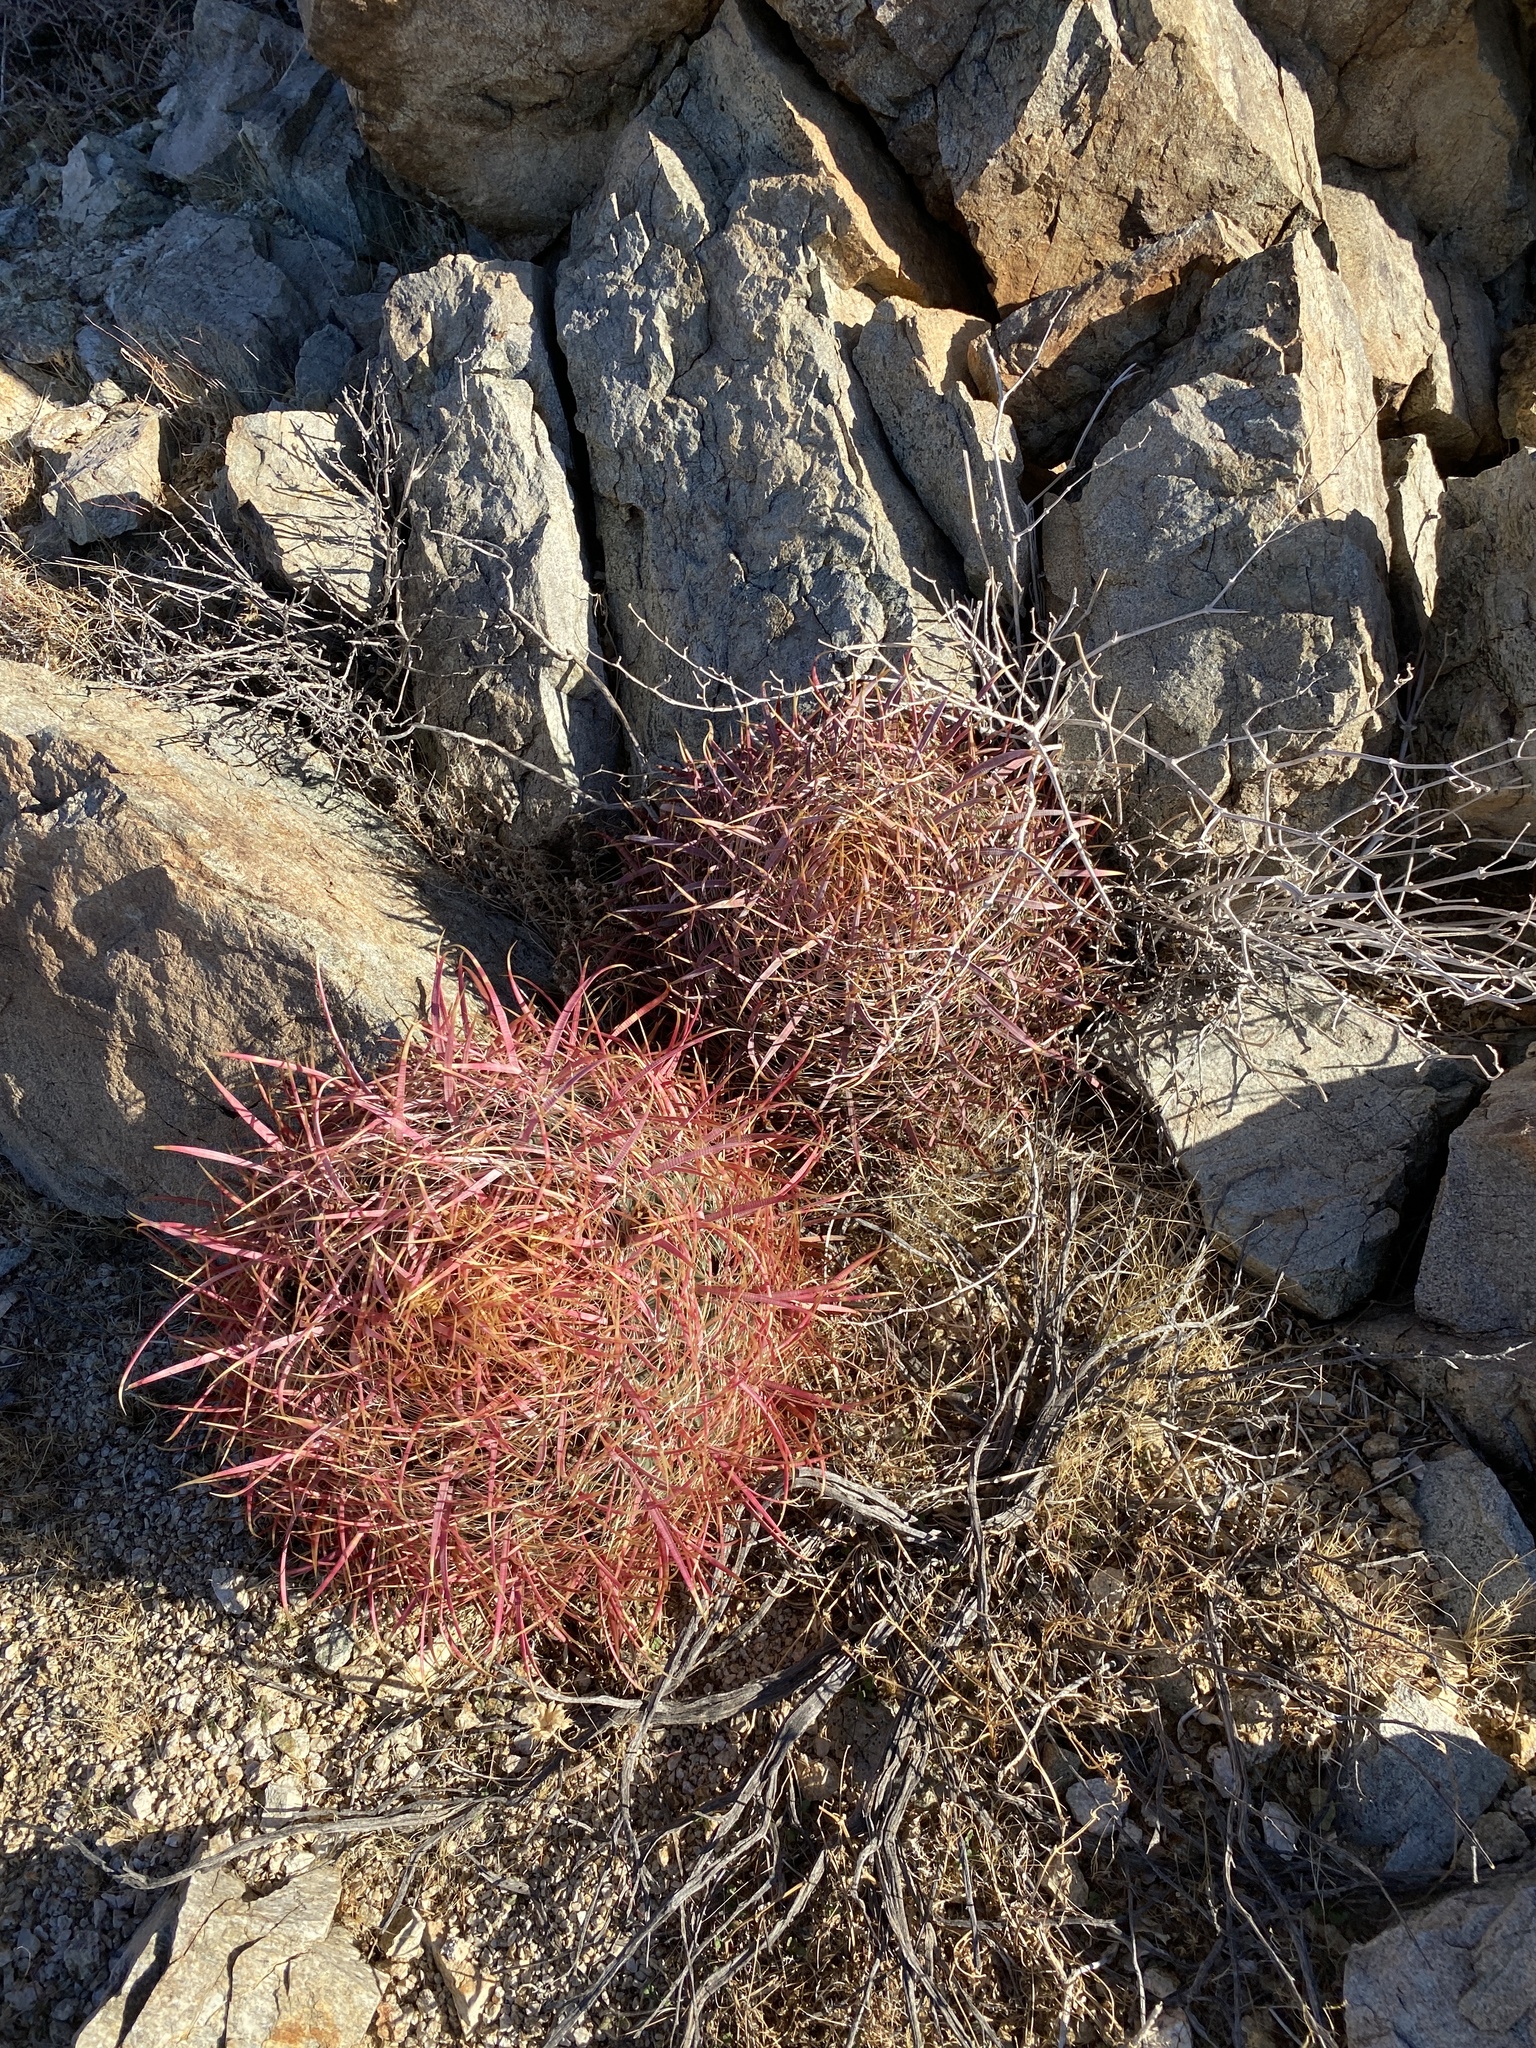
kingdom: Plantae
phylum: Tracheophyta
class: Magnoliopsida
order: Caryophyllales
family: Cactaceae
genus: Ferocactus
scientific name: Ferocactus cylindraceus
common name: California barrel cactus
